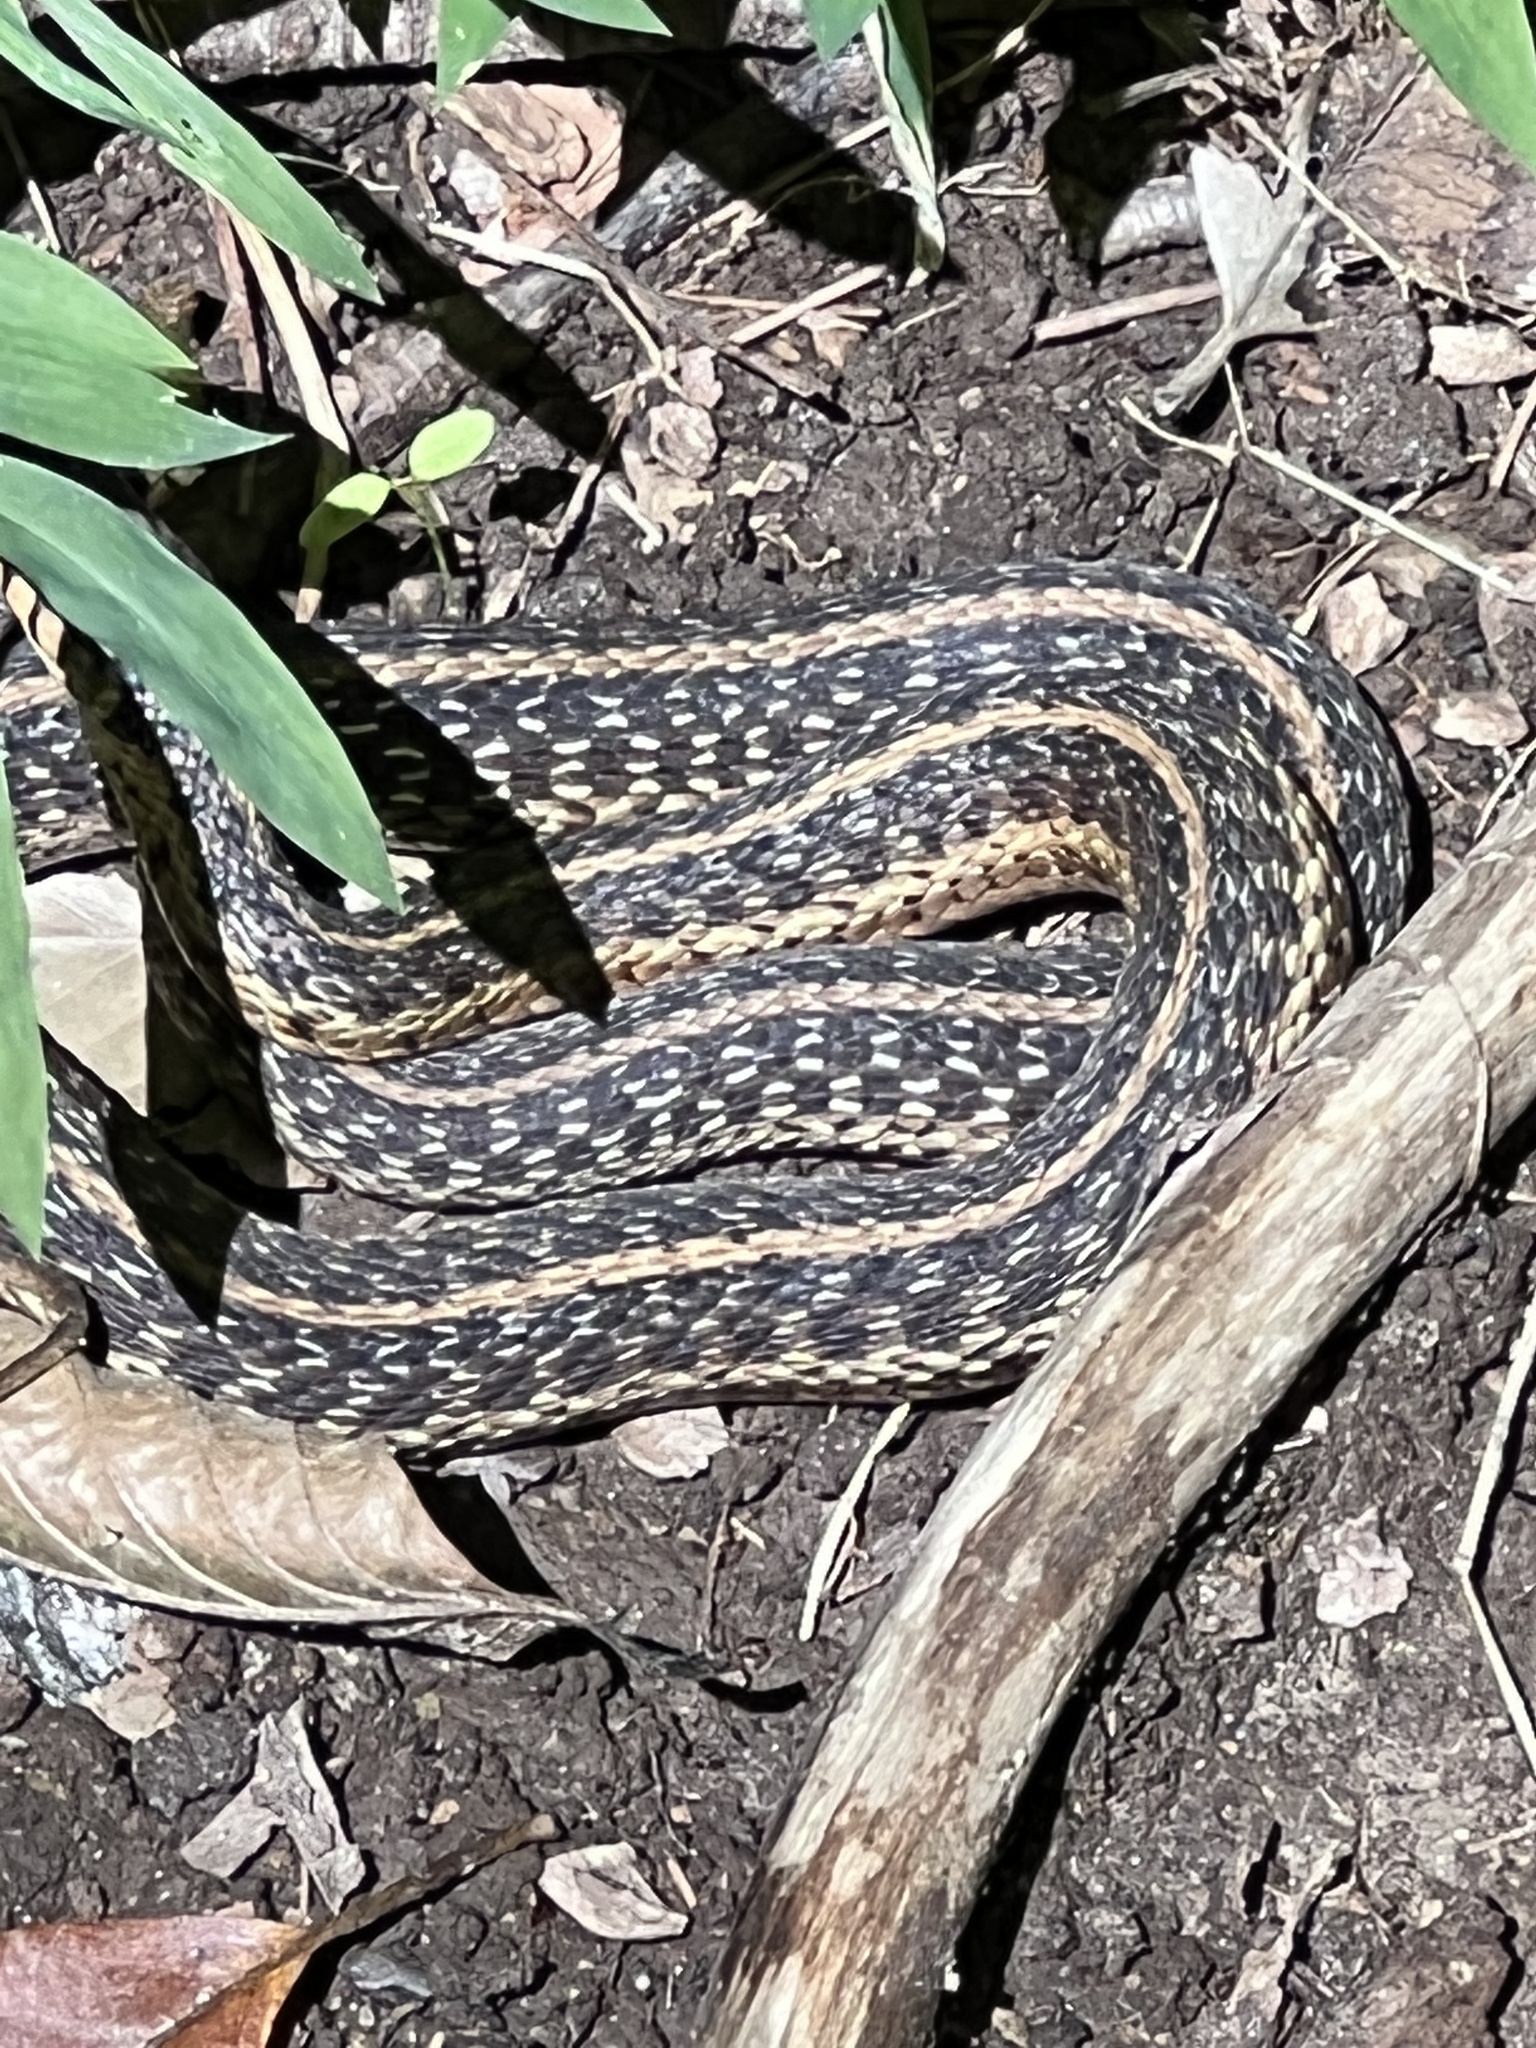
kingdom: Animalia
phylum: Chordata
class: Squamata
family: Colubridae
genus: Thamnophis
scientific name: Thamnophis sirtalis
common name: Common garter snake
